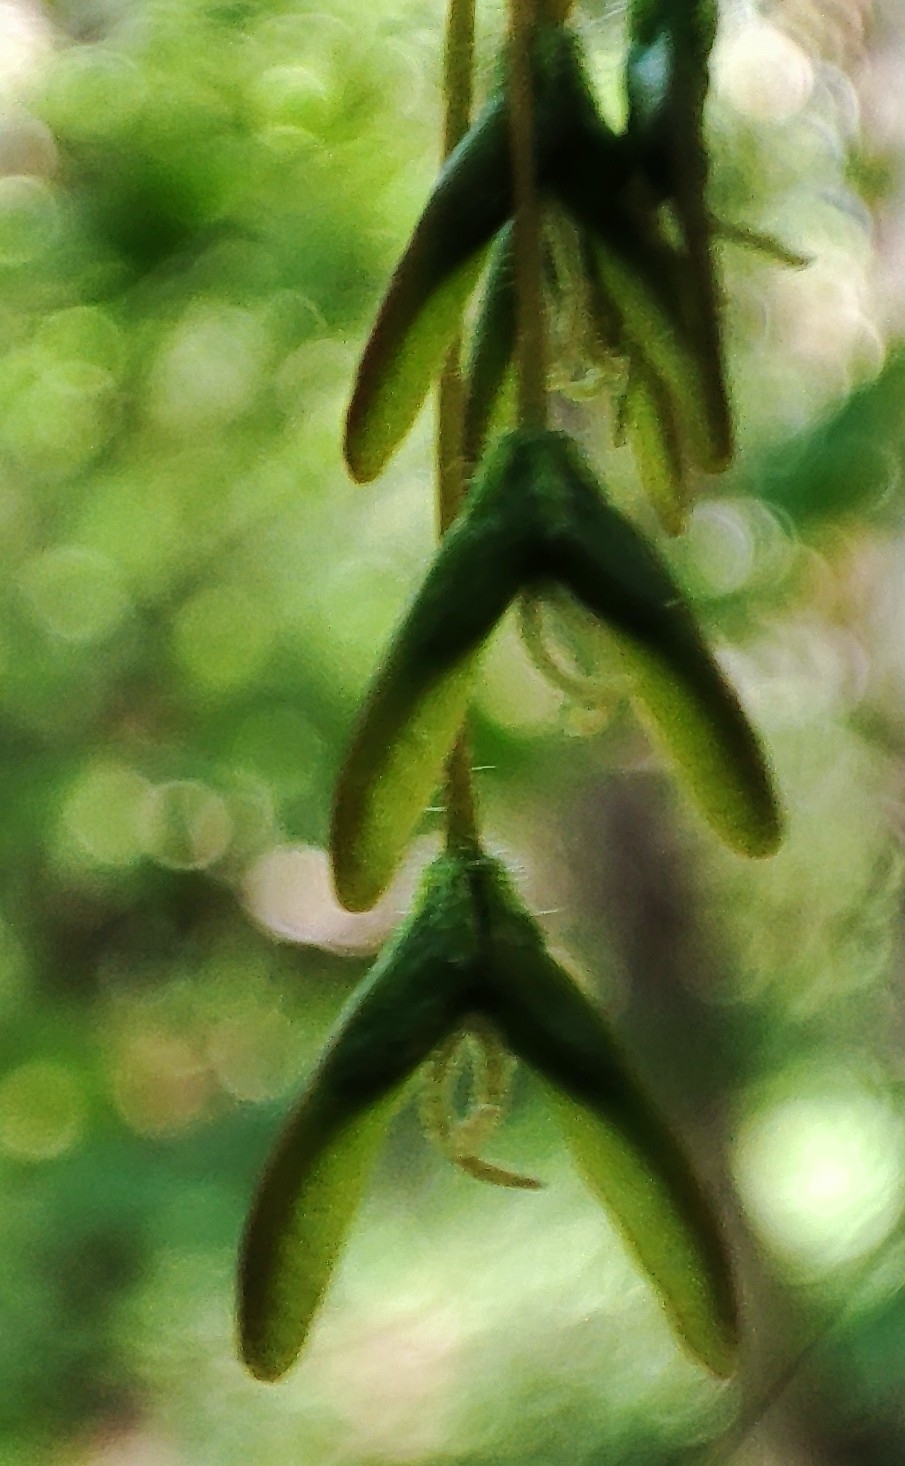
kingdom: Plantae
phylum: Tracheophyta
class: Magnoliopsida
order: Sapindales
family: Sapindaceae
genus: Acer
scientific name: Acer negundo
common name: Ashleaf maple
